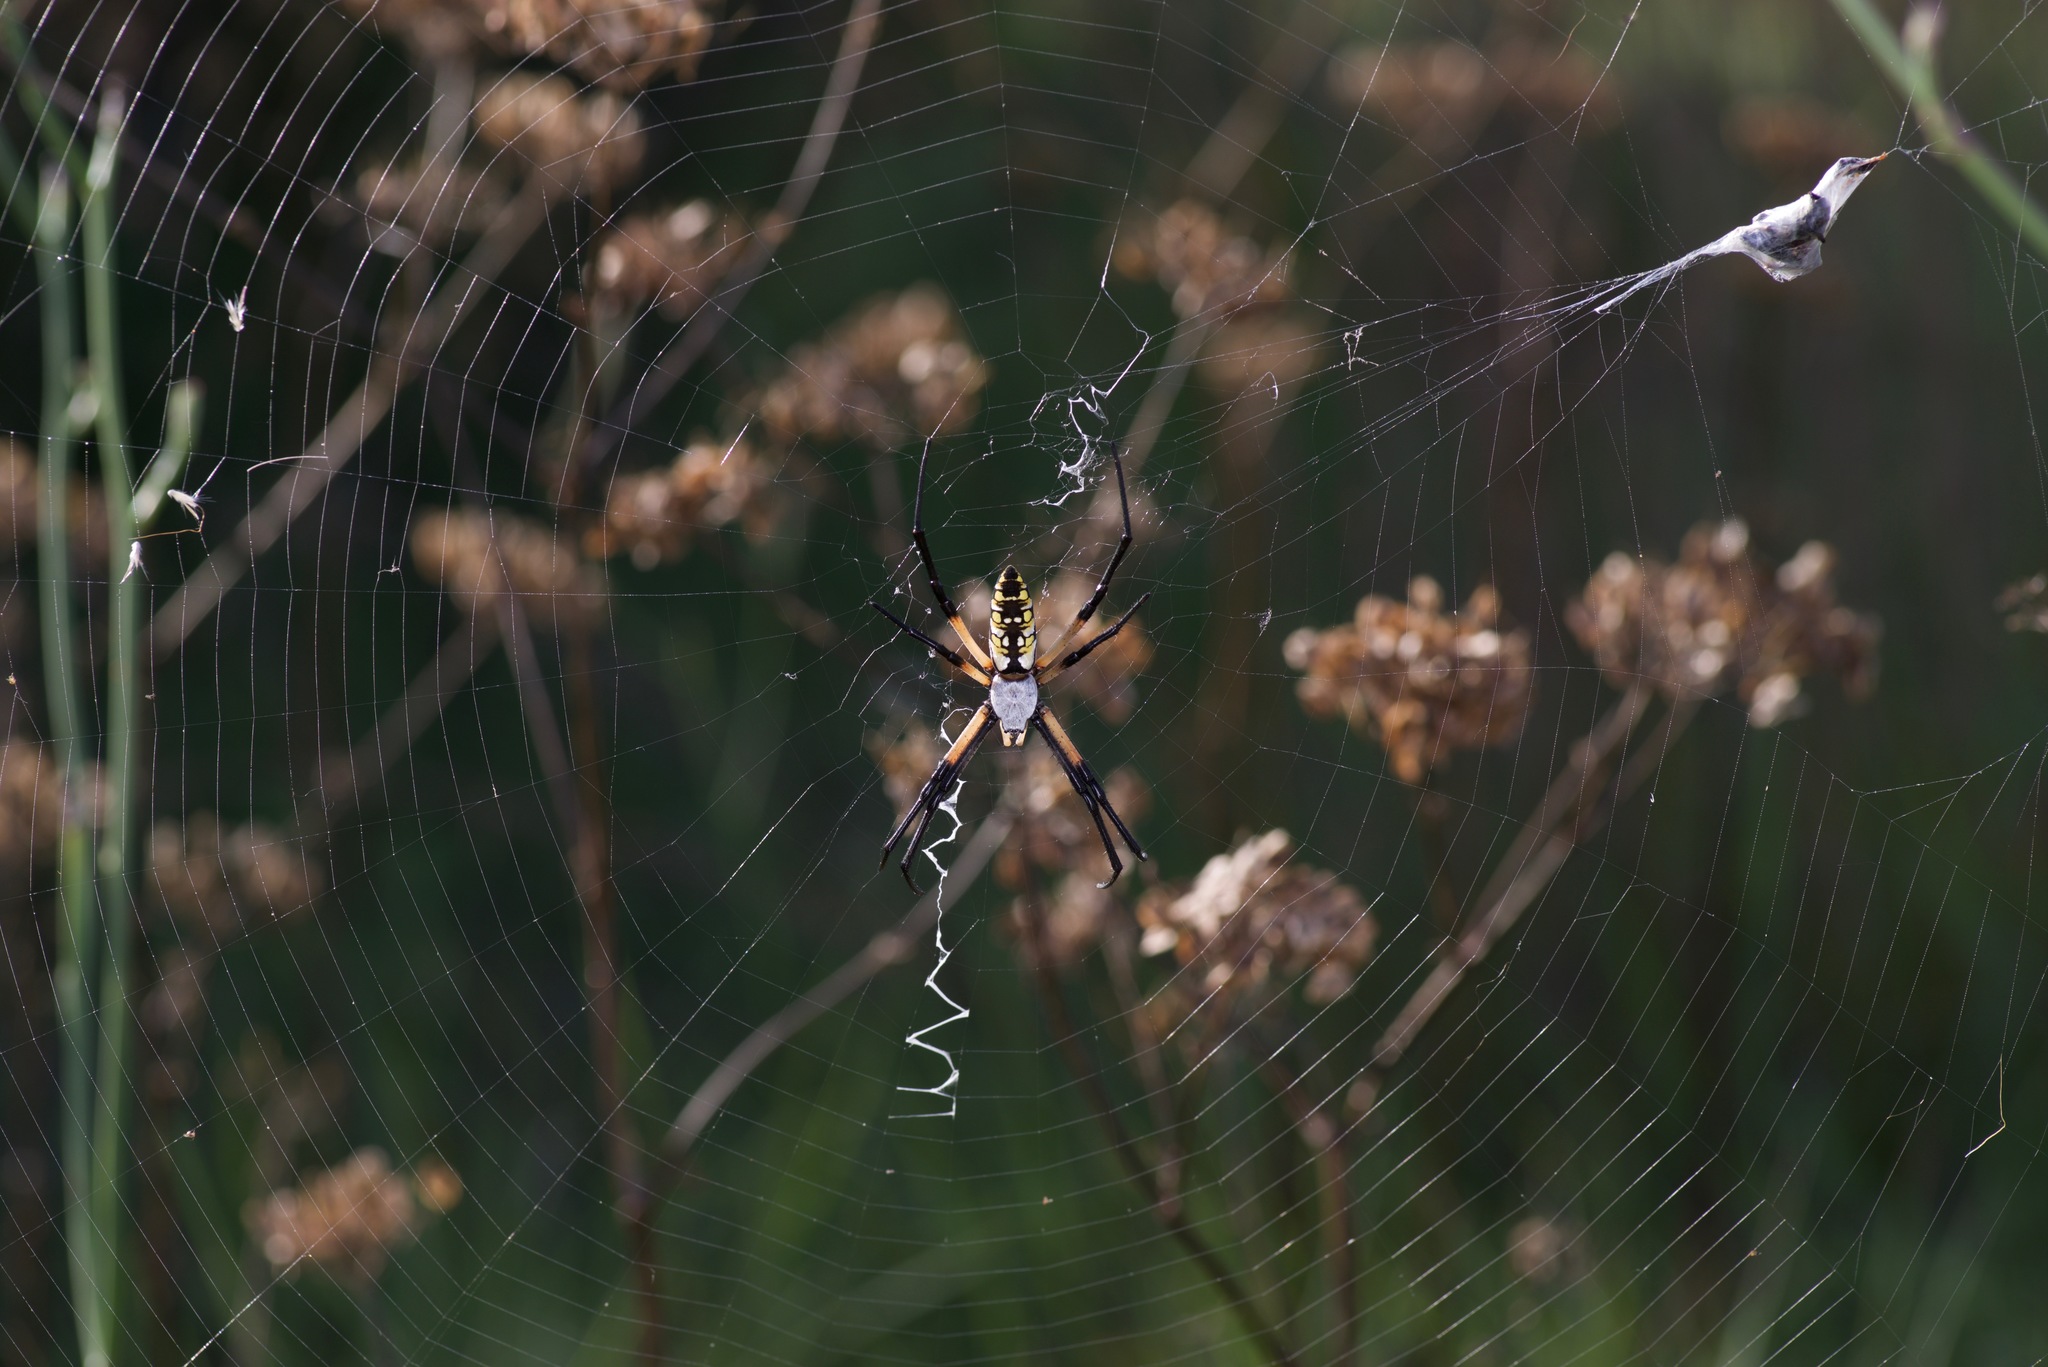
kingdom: Animalia
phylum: Arthropoda
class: Arachnida
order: Araneae
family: Araneidae
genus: Argiope
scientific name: Argiope aurantia
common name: Orb weavers
